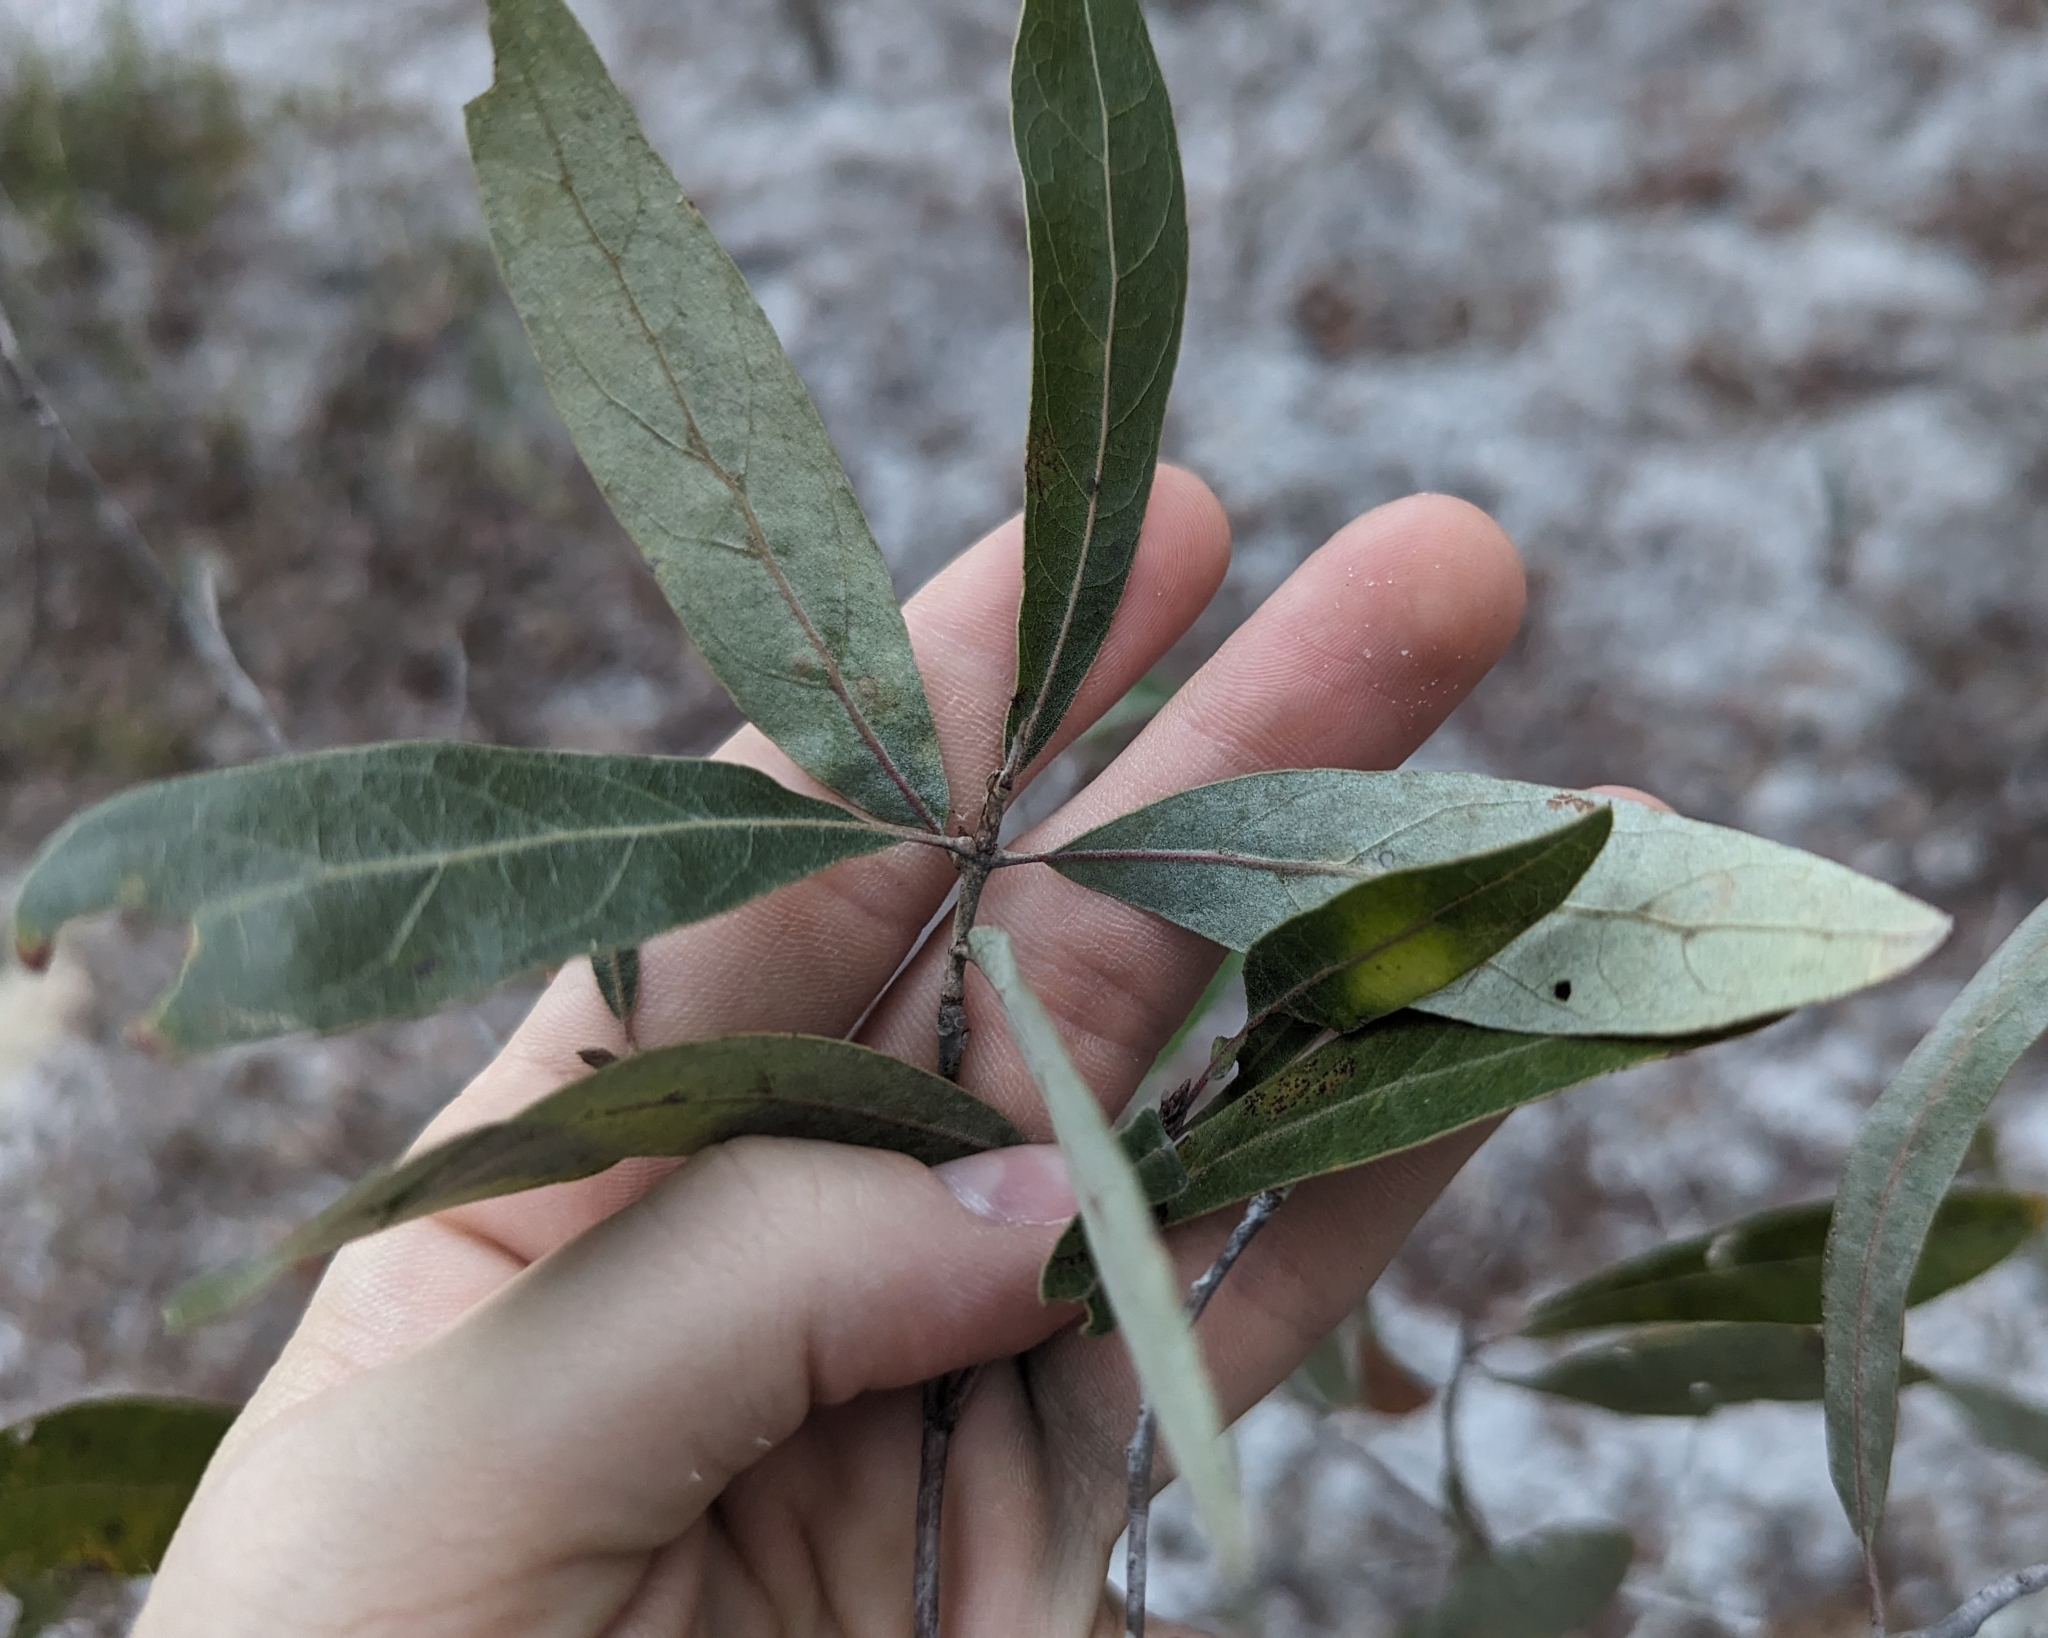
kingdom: Plantae
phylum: Tracheophyta
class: Magnoliopsida
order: Fagales
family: Fagaceae
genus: Quercus
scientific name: Quercus incana
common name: Bluejack oak
